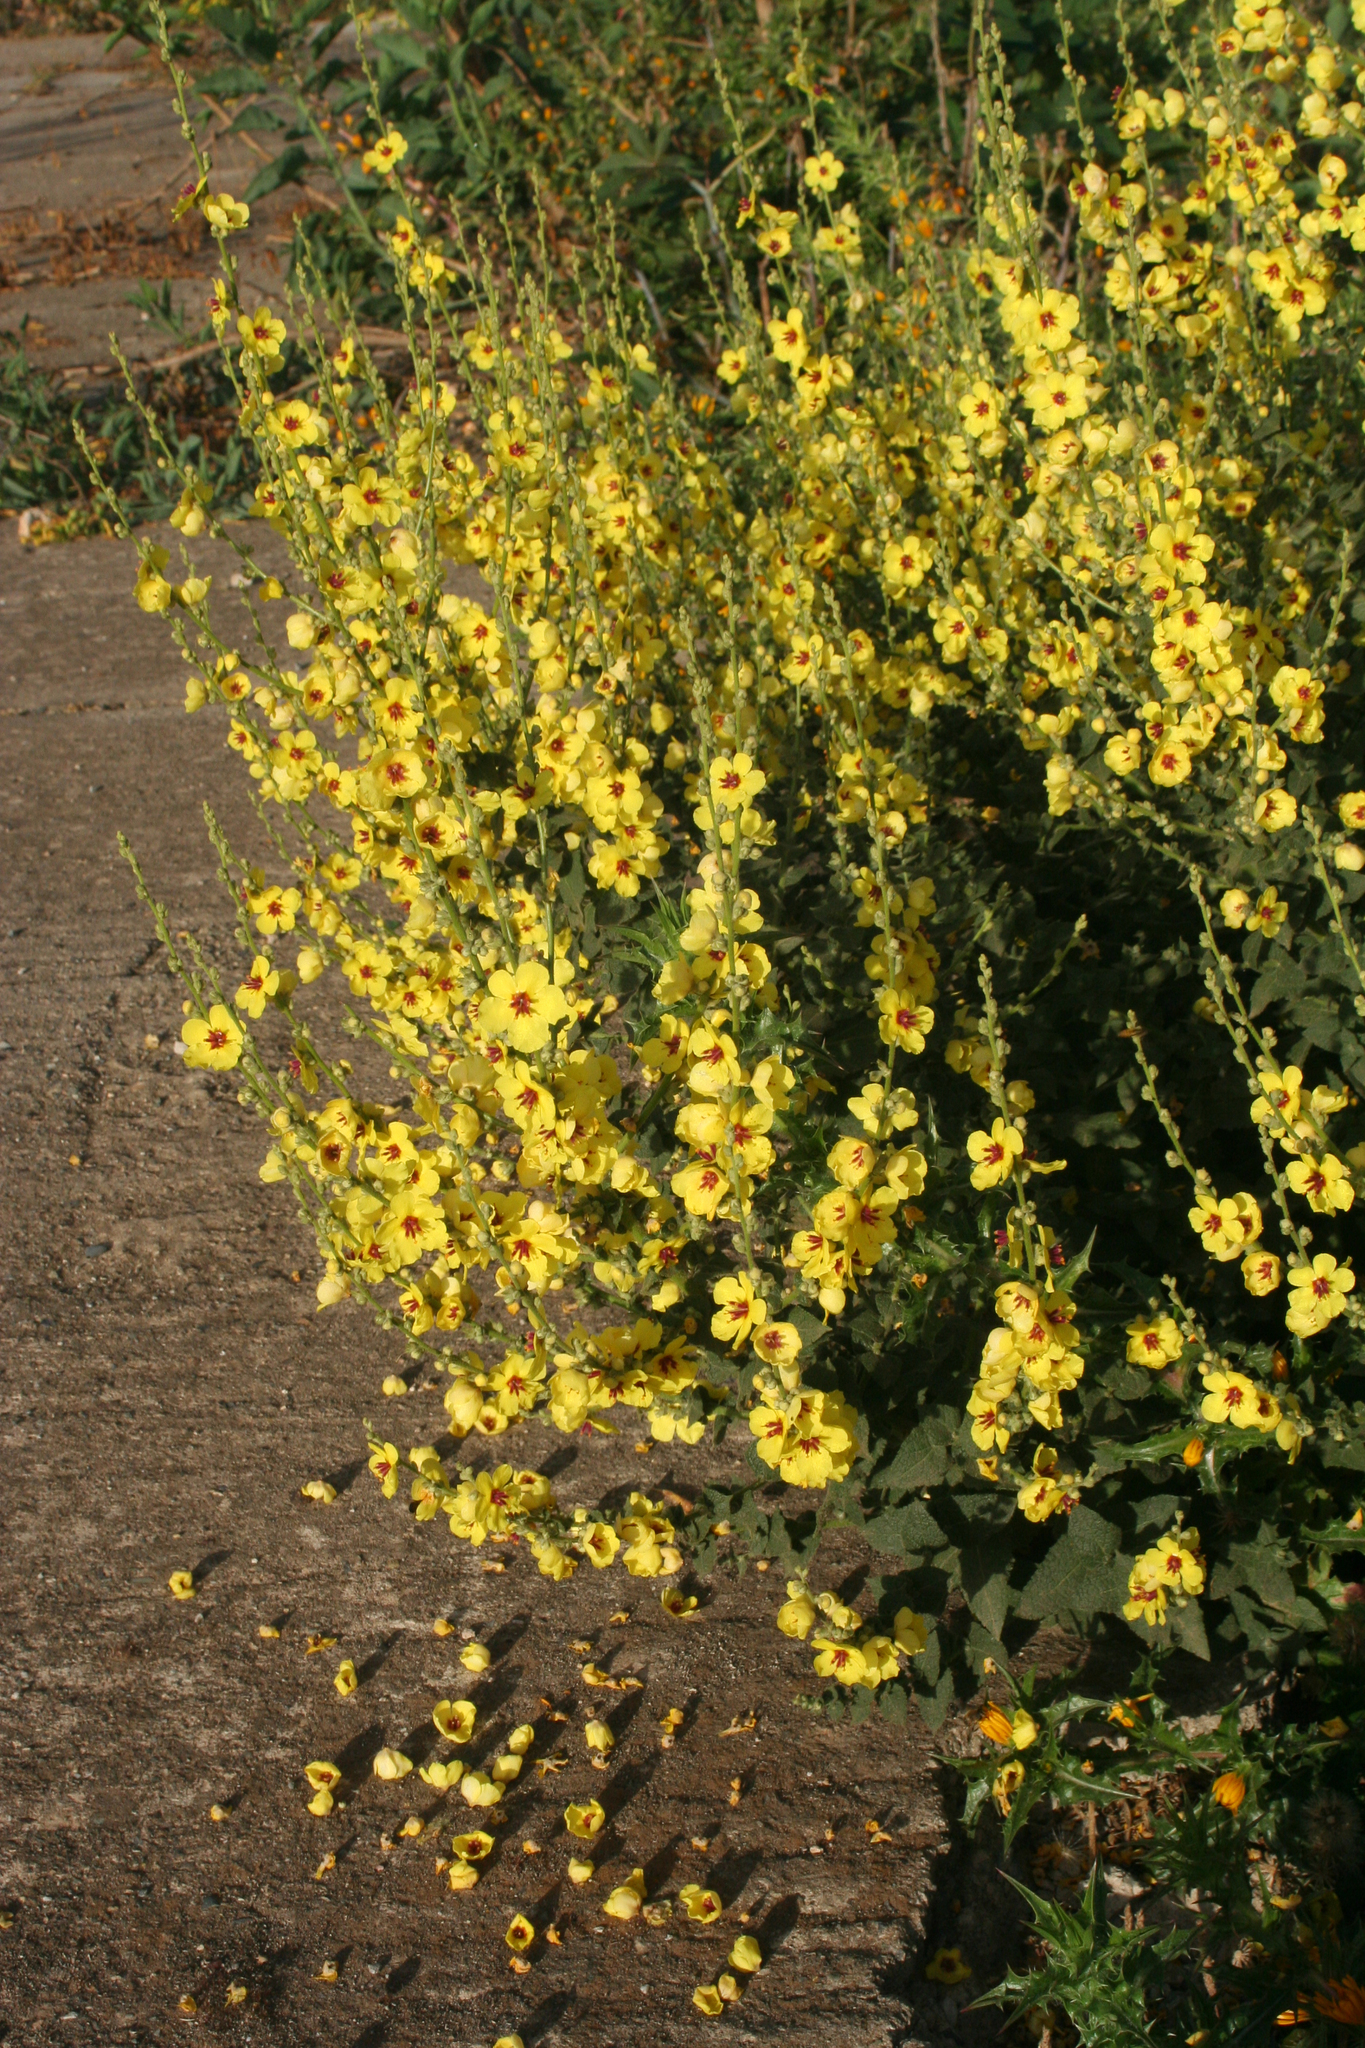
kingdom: Plantae
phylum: Tracheophyta
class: Magnoliopsida
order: Lamiales
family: Scrophulariaceae
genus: Verbascum
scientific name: Verbascum sinuatum
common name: Wavyleaf mullein
